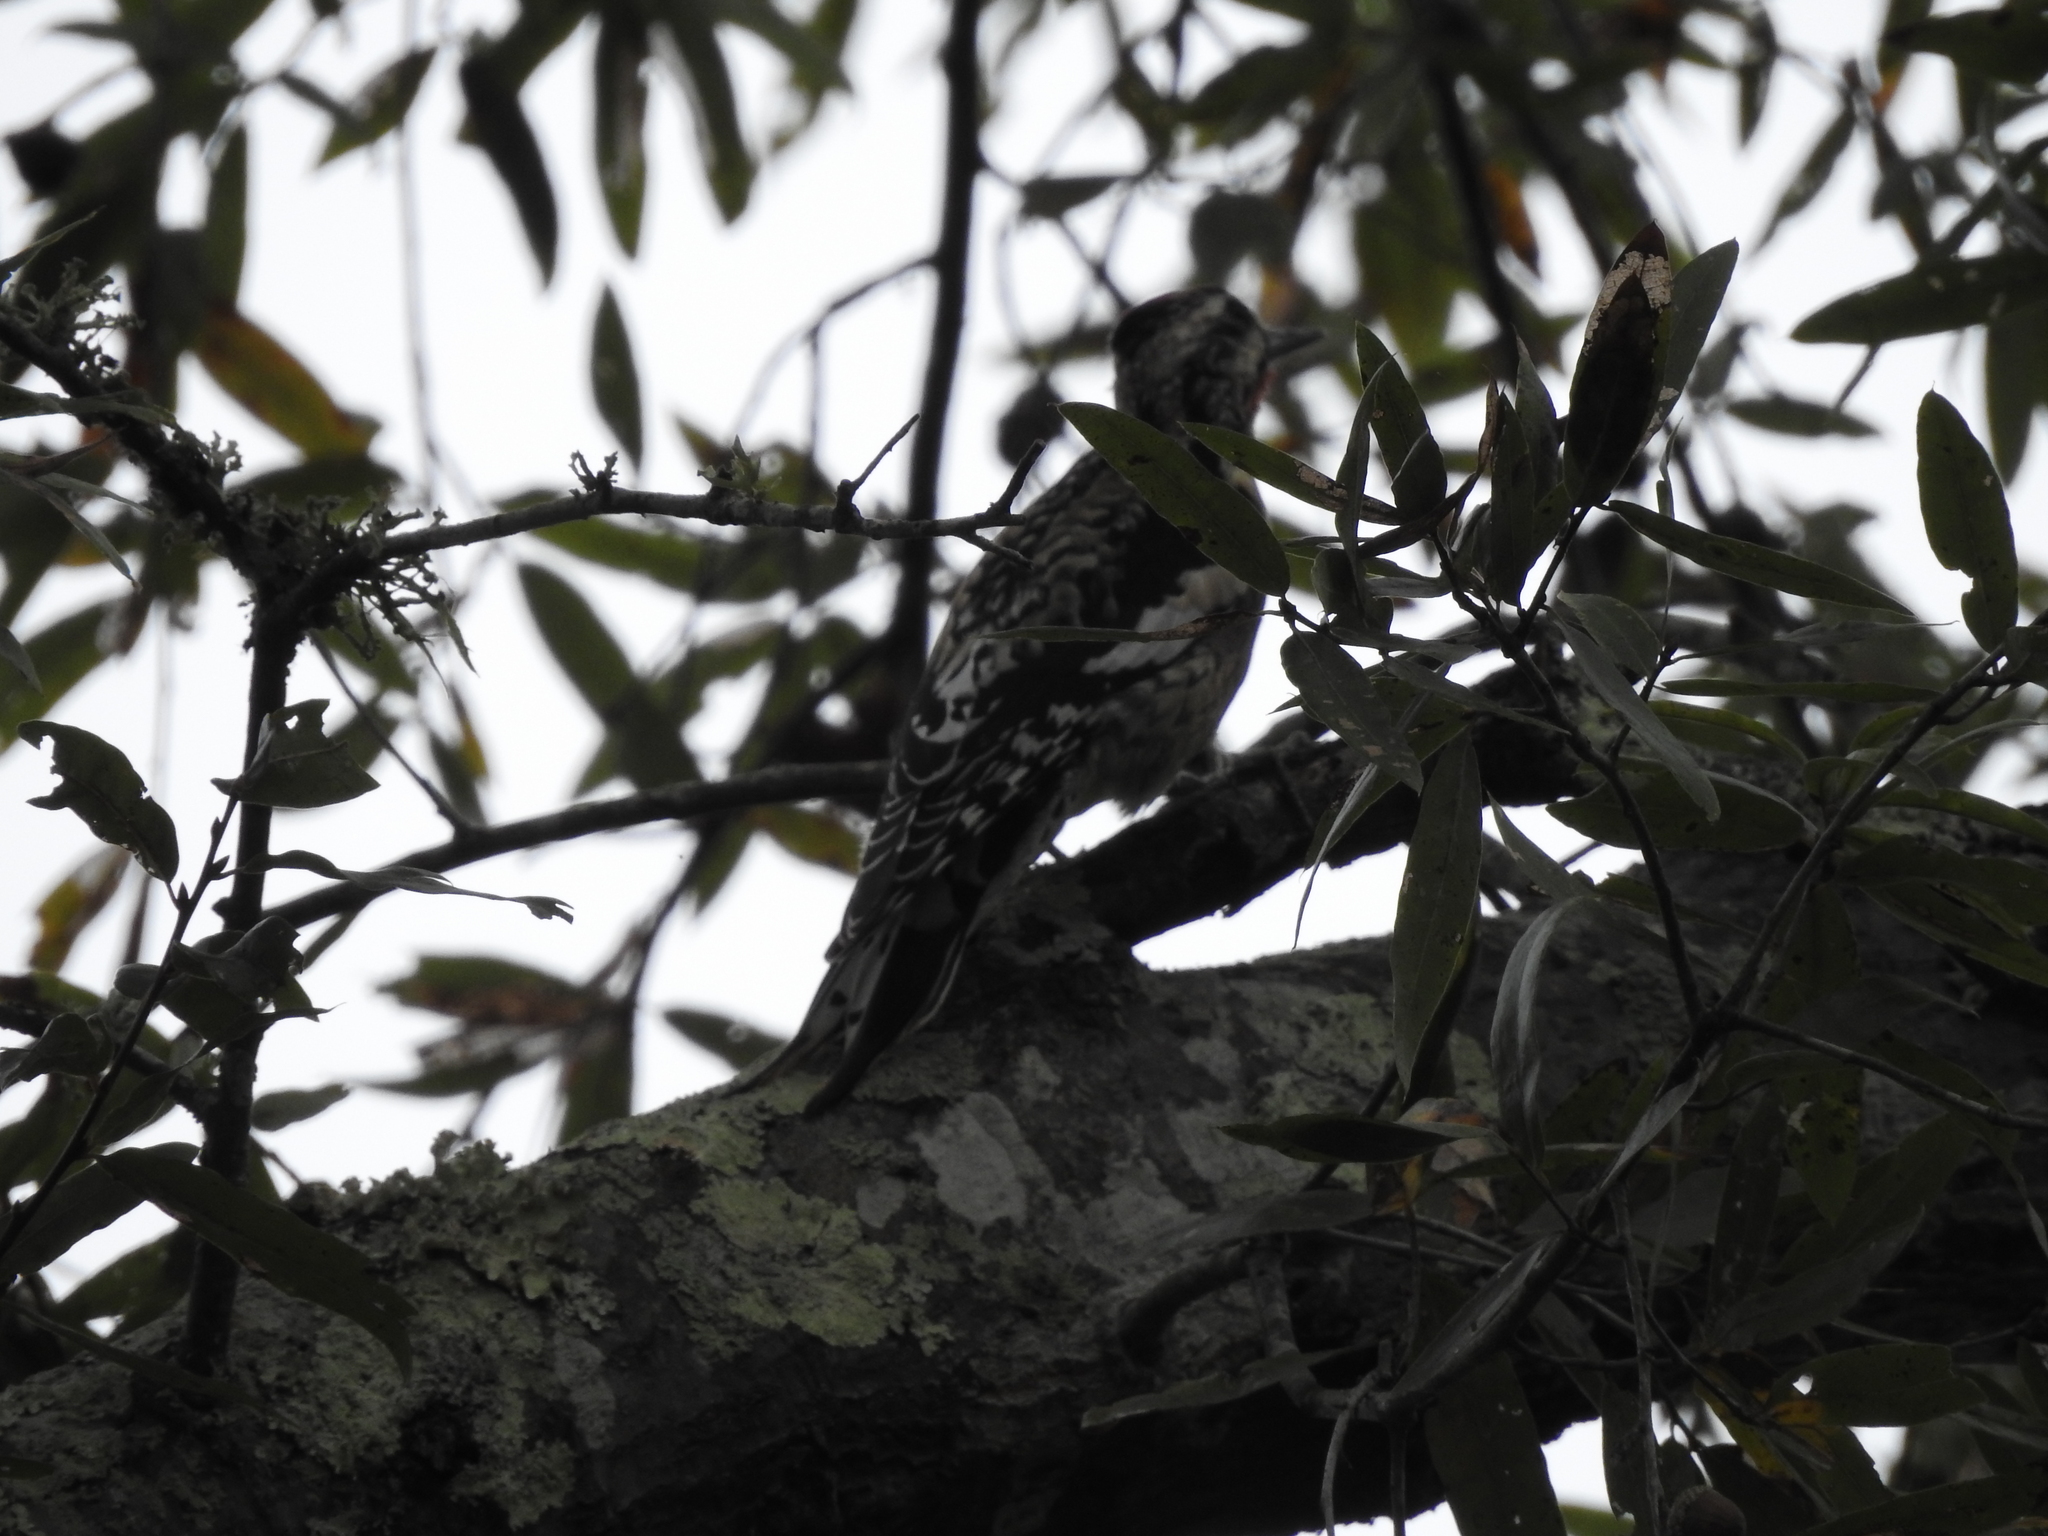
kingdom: Animalia
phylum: Chordata
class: Aves
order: Piciformes
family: Picidae
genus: Sphyrapicus
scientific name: Sphyrapicus varius
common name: Yellow-bellied sapsucker
